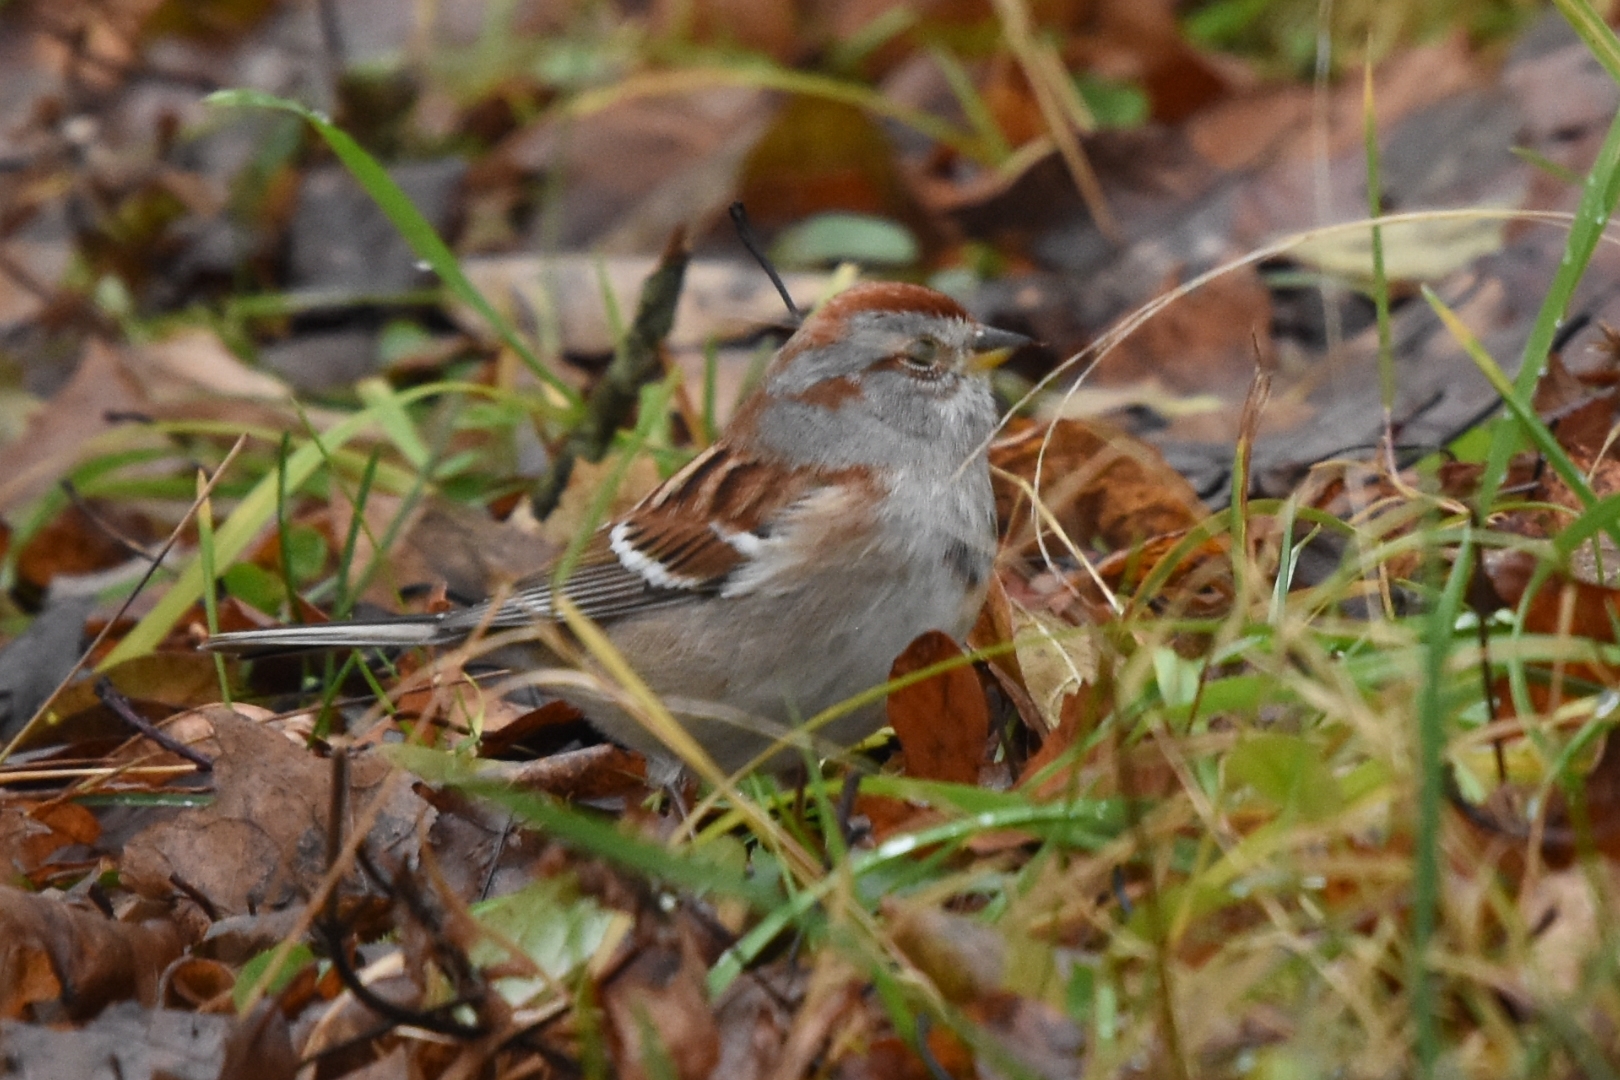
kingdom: Animalia
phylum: Chordata
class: Aves
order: Passeriformes
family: Passerellidae
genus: Spizelloides
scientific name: Spizelloides arborea
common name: American tree sparrow
